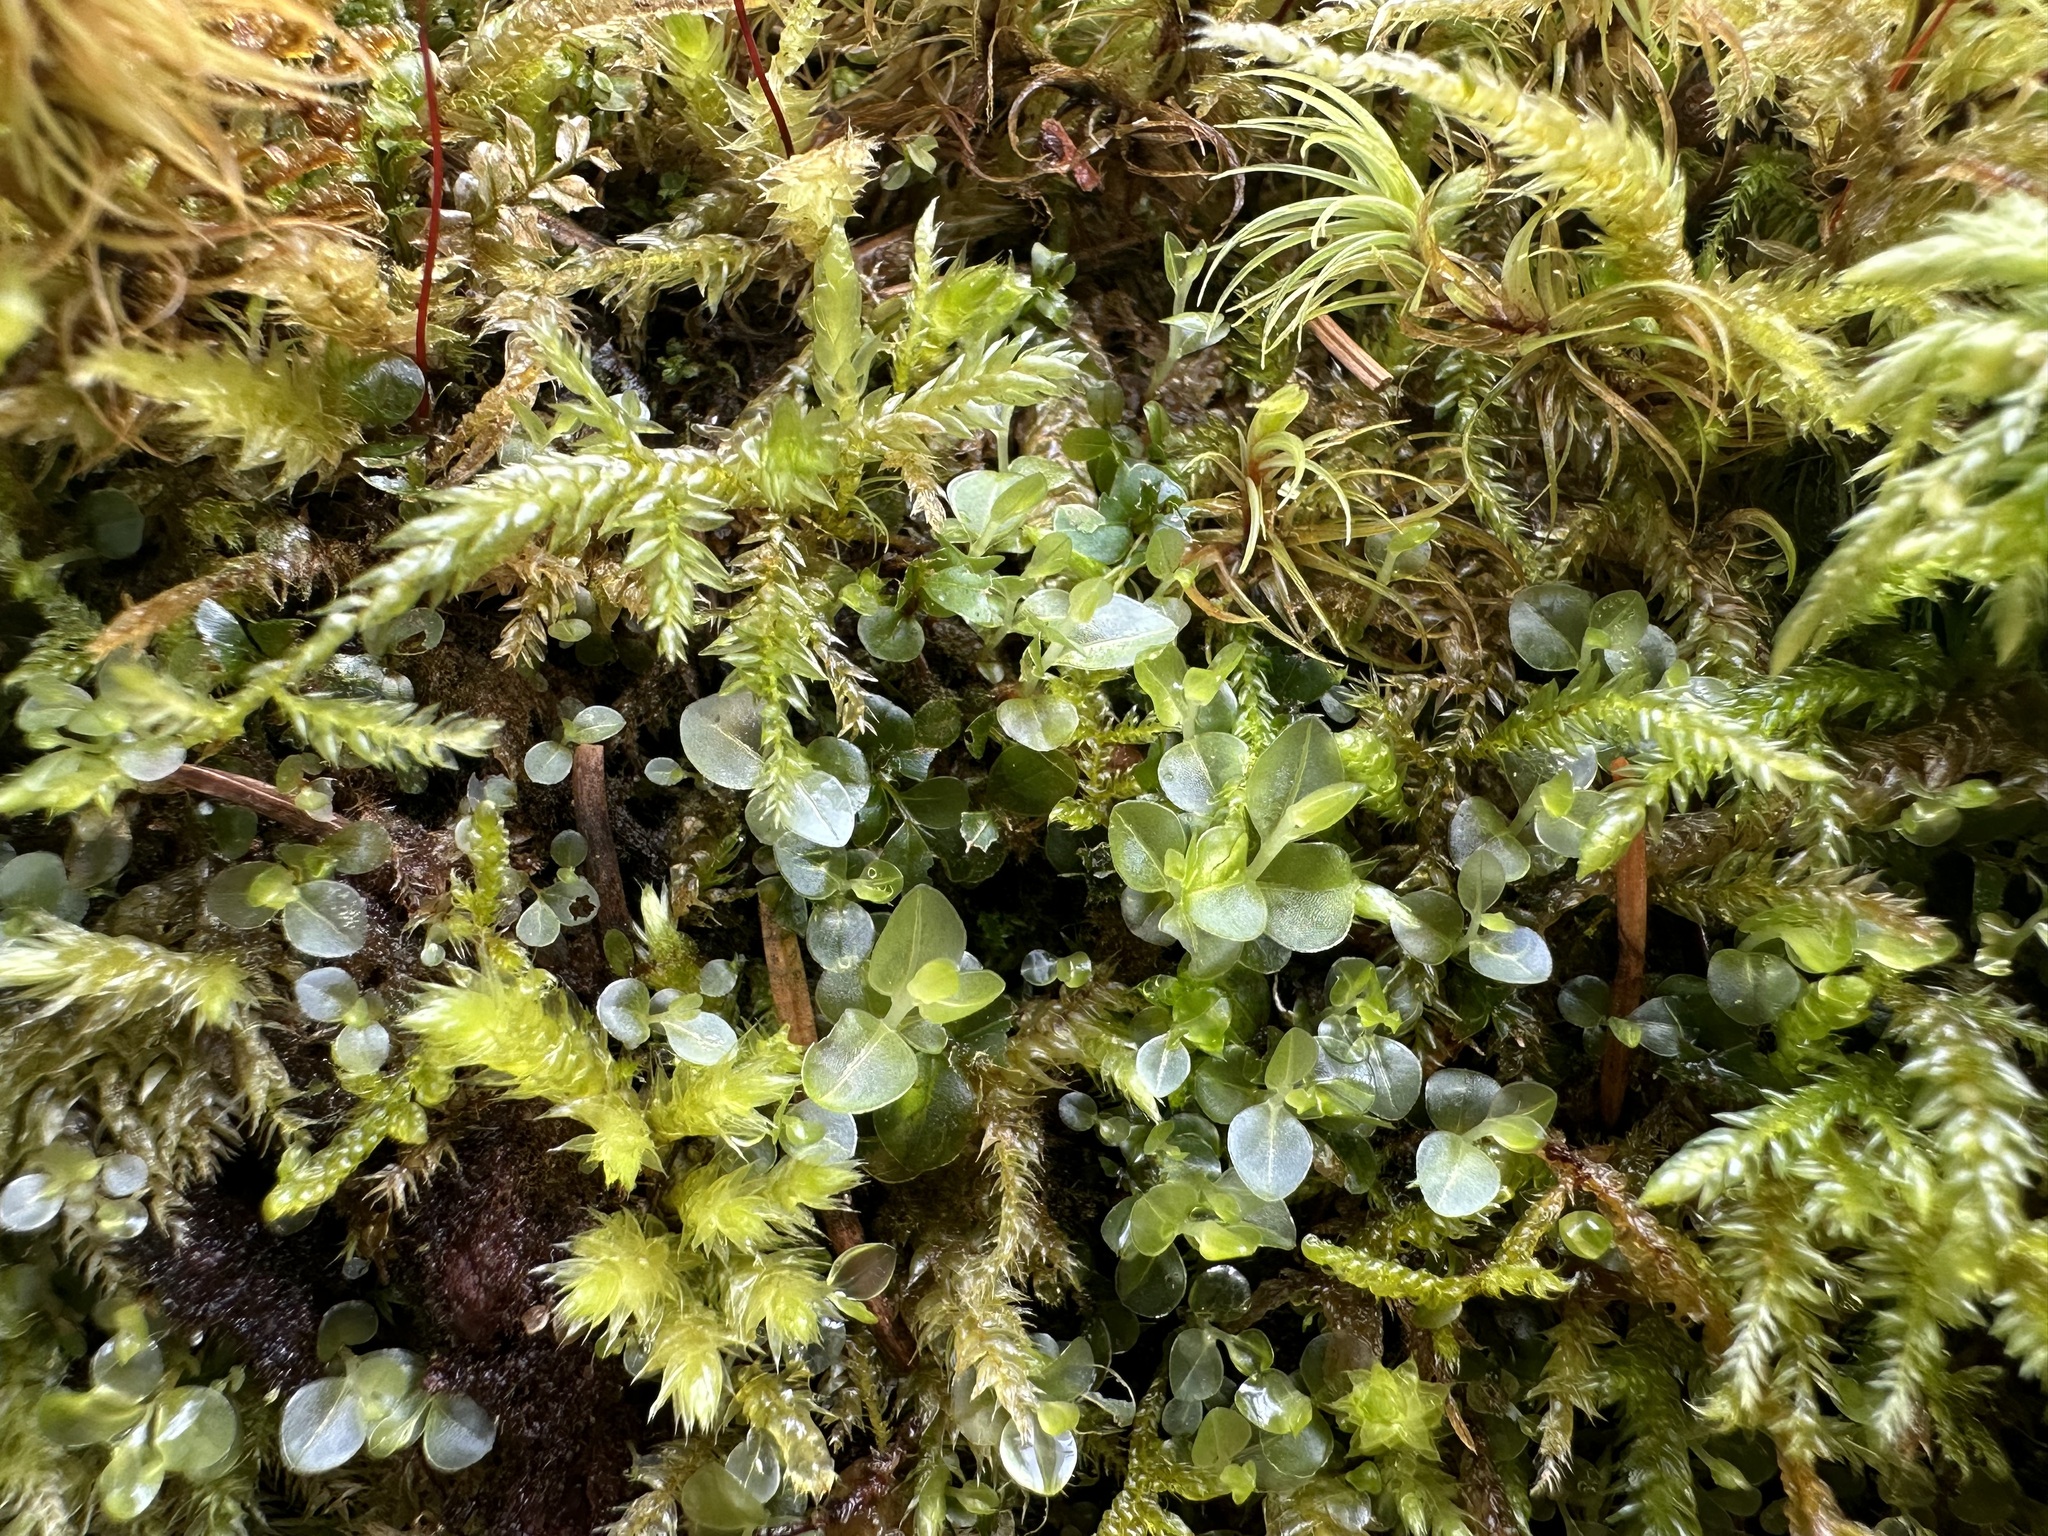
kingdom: Plantae
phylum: Bryophyta
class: Bryopsida
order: Bryales
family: Mniaceae
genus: Rhizomnium
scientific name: Rhizomnium punctatum
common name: Dotted leafy moss
